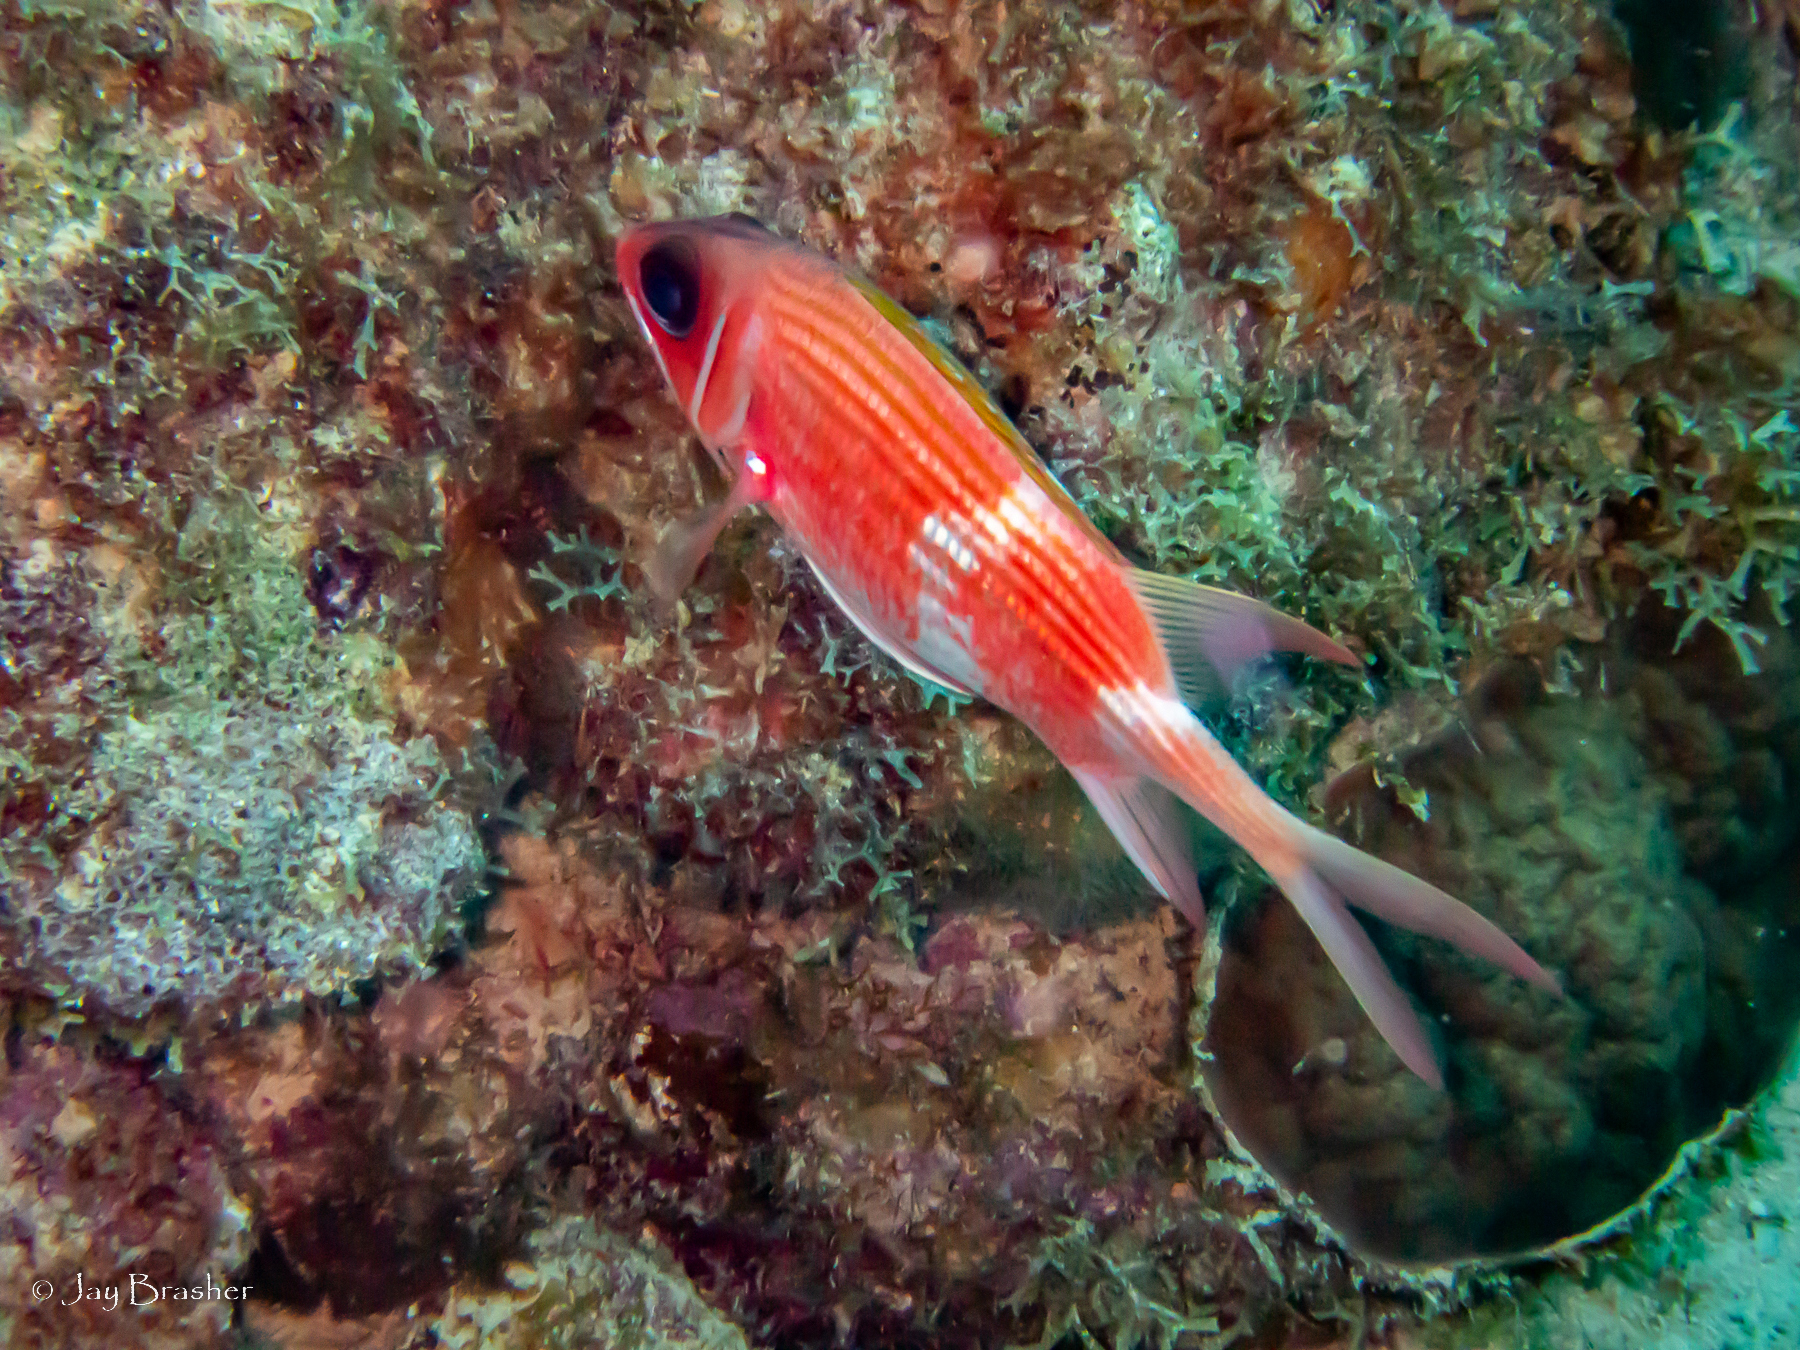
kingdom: Animalia
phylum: Chordata
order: Beryciformes
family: Holocentridae
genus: Holocentrus
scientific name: Holocentrus rufus
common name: Longspine squirrelfish
